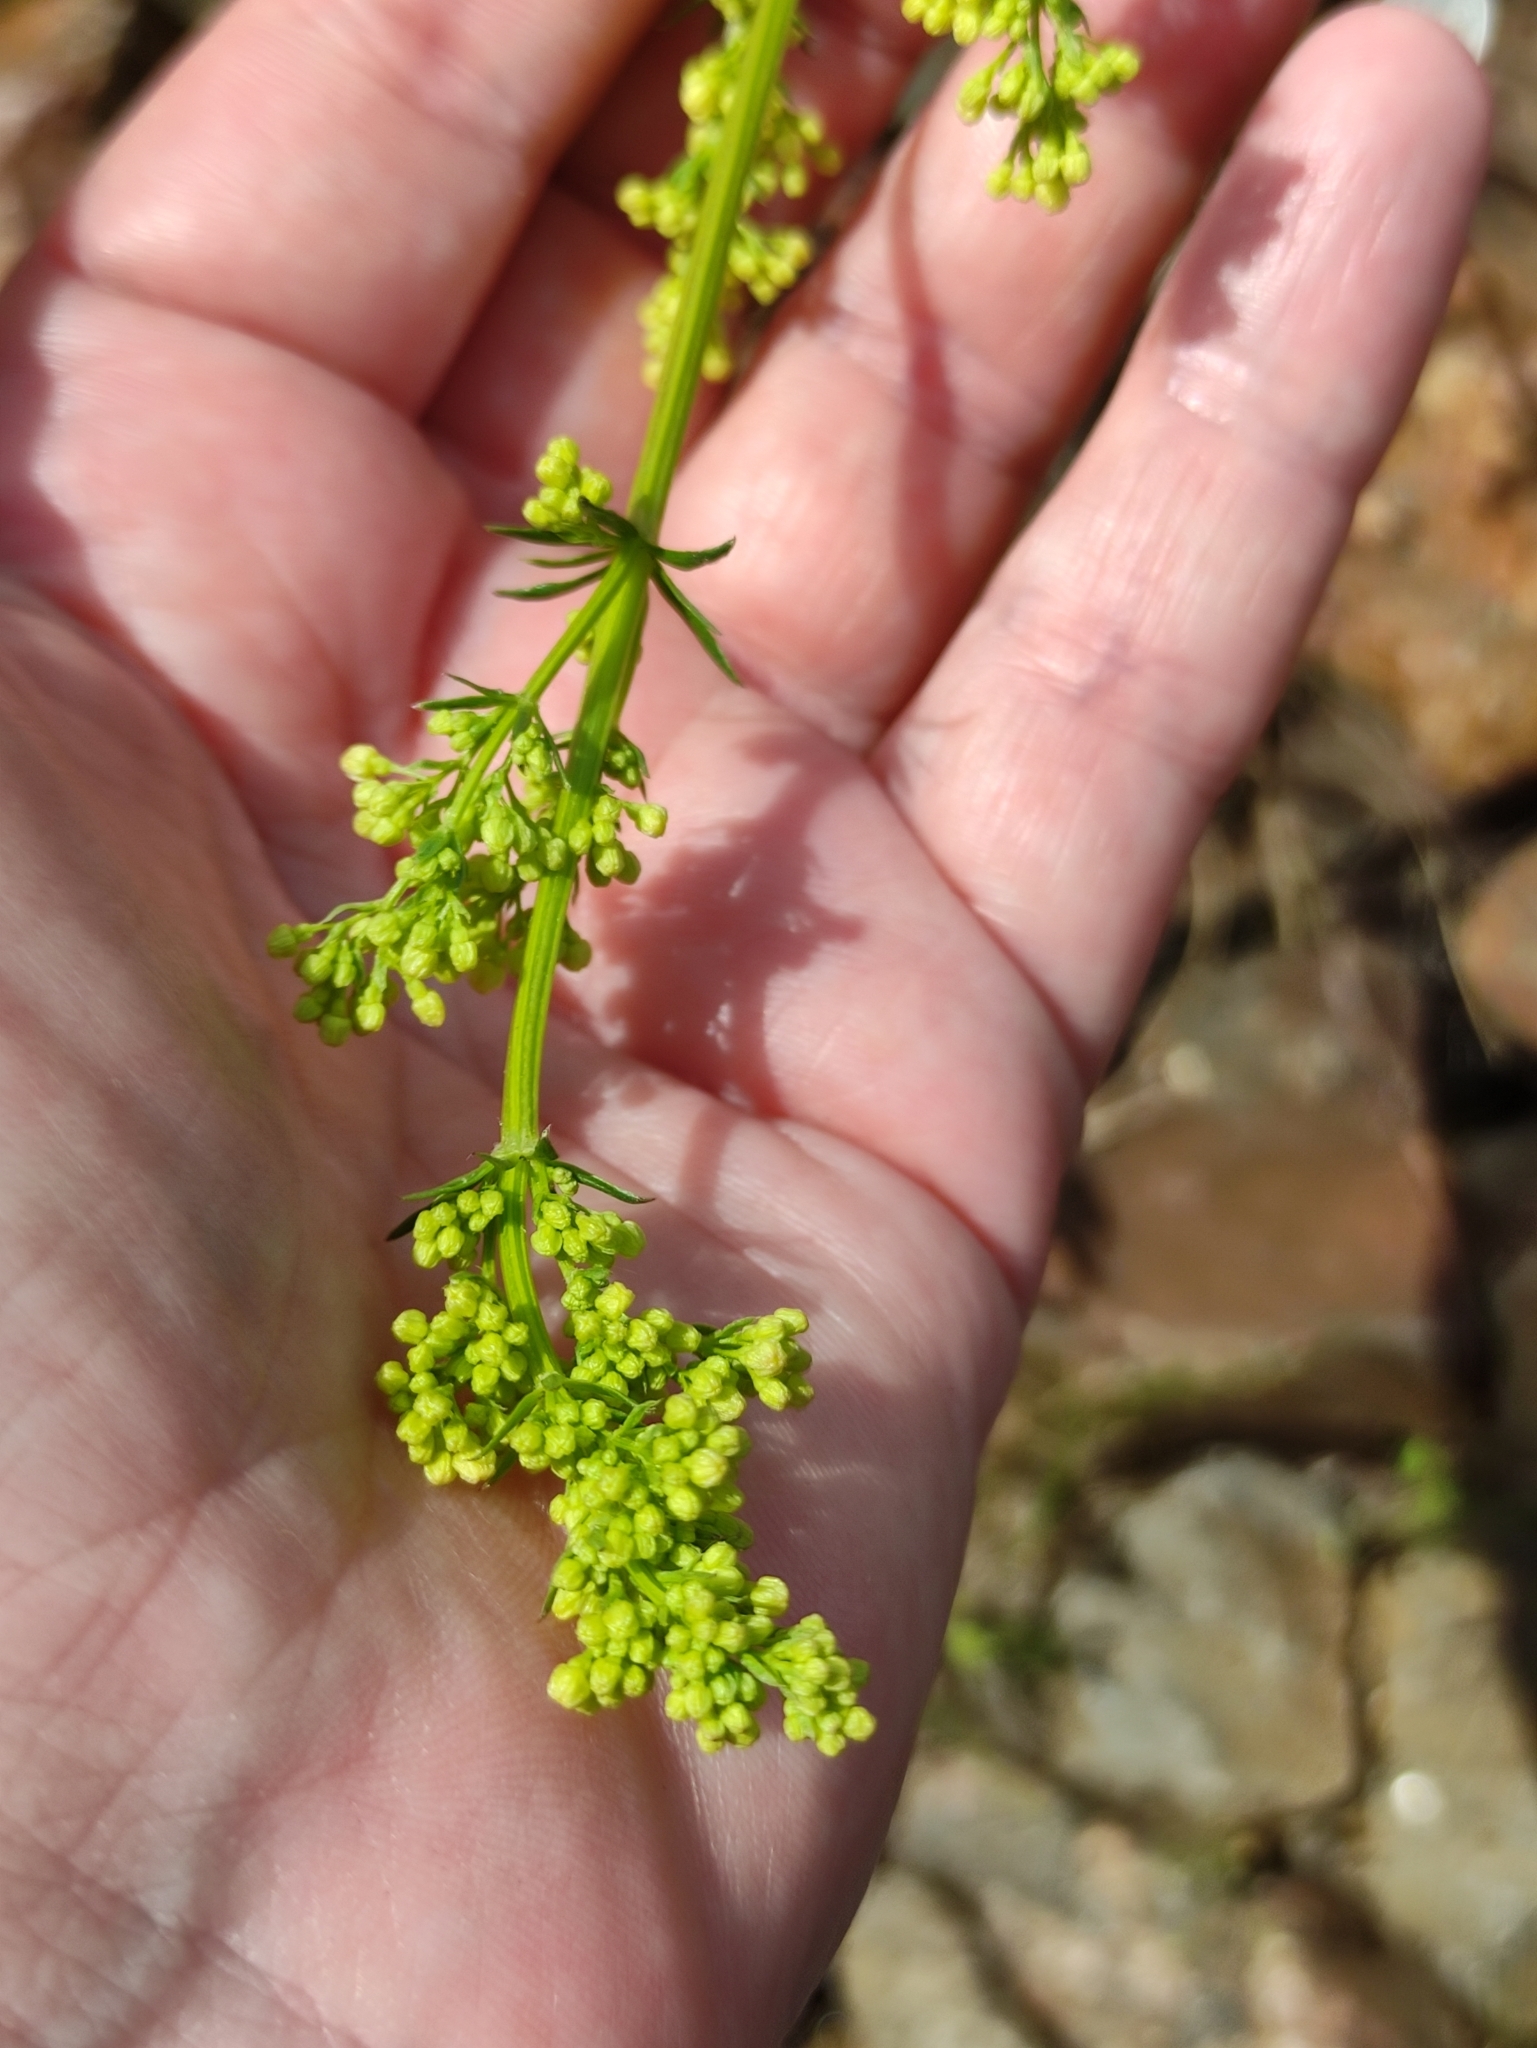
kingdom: Plantae
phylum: Tracheophyta
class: Magnoliopsida
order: Gentianales
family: Rubiaceae
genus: Galium
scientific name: Galium verum
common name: Lady's bedstraw
